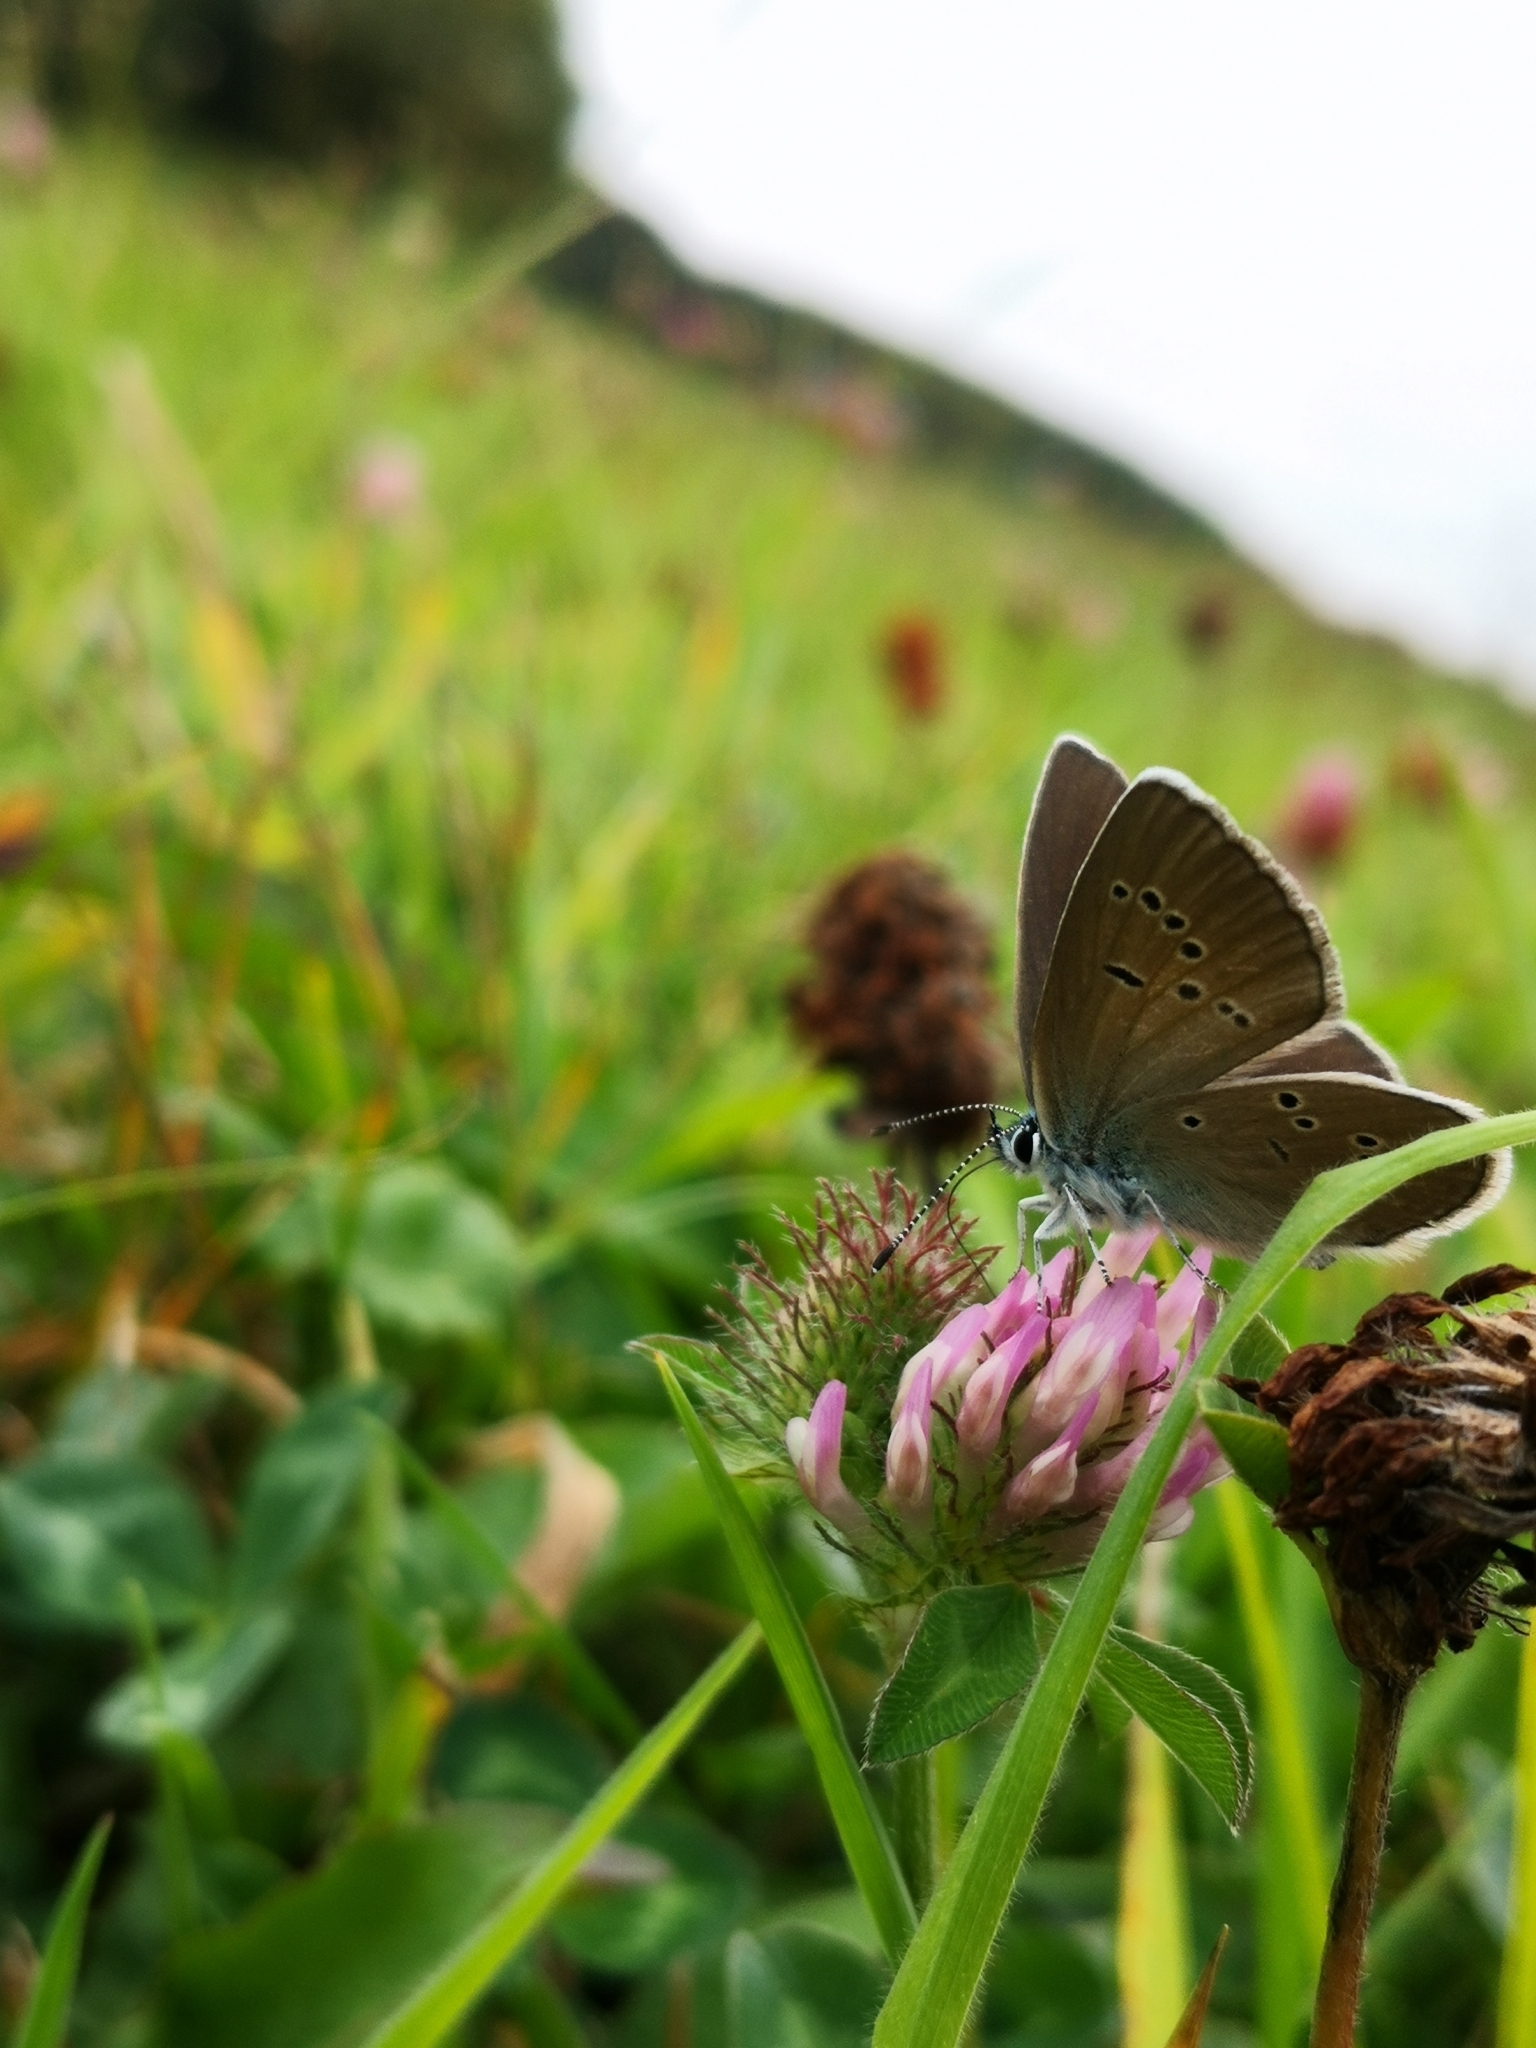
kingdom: Animalia
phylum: Arthropoda
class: Insecta
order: Lepidoptera
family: Lycaenidae
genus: Cyaniris
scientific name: Cyaniris semiargus
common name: Mazarine blue
